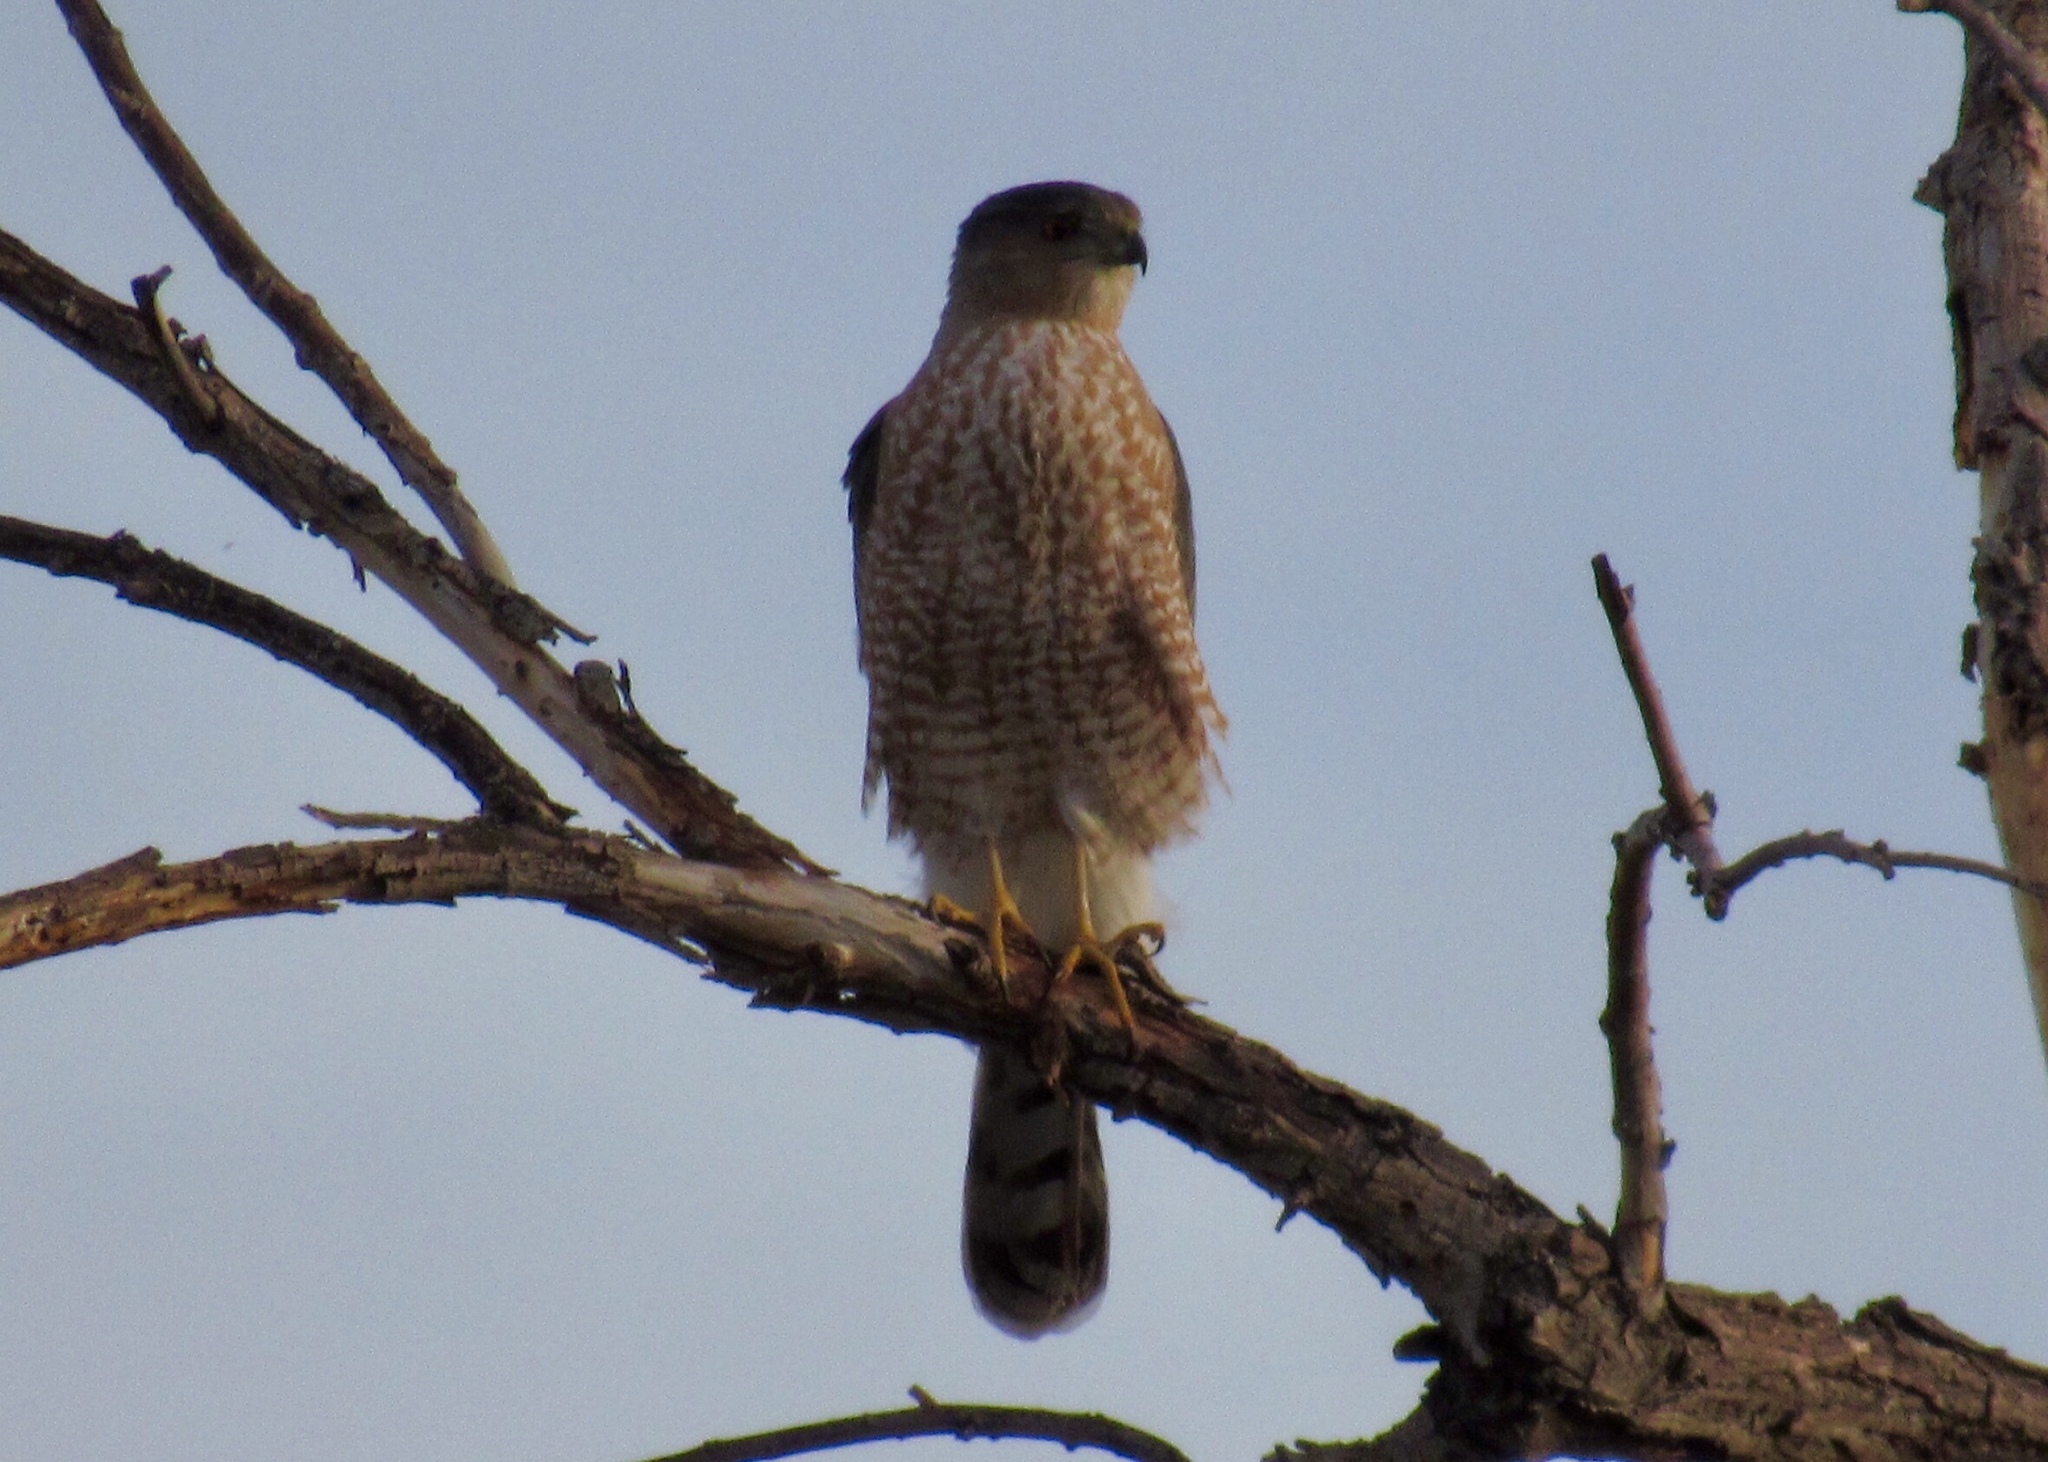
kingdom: Animalia
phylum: Chordata
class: Aves
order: Accipitriformes
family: Accipitridae
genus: Accipiter
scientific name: Accipiter cooperii
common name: Cooper's hawk
